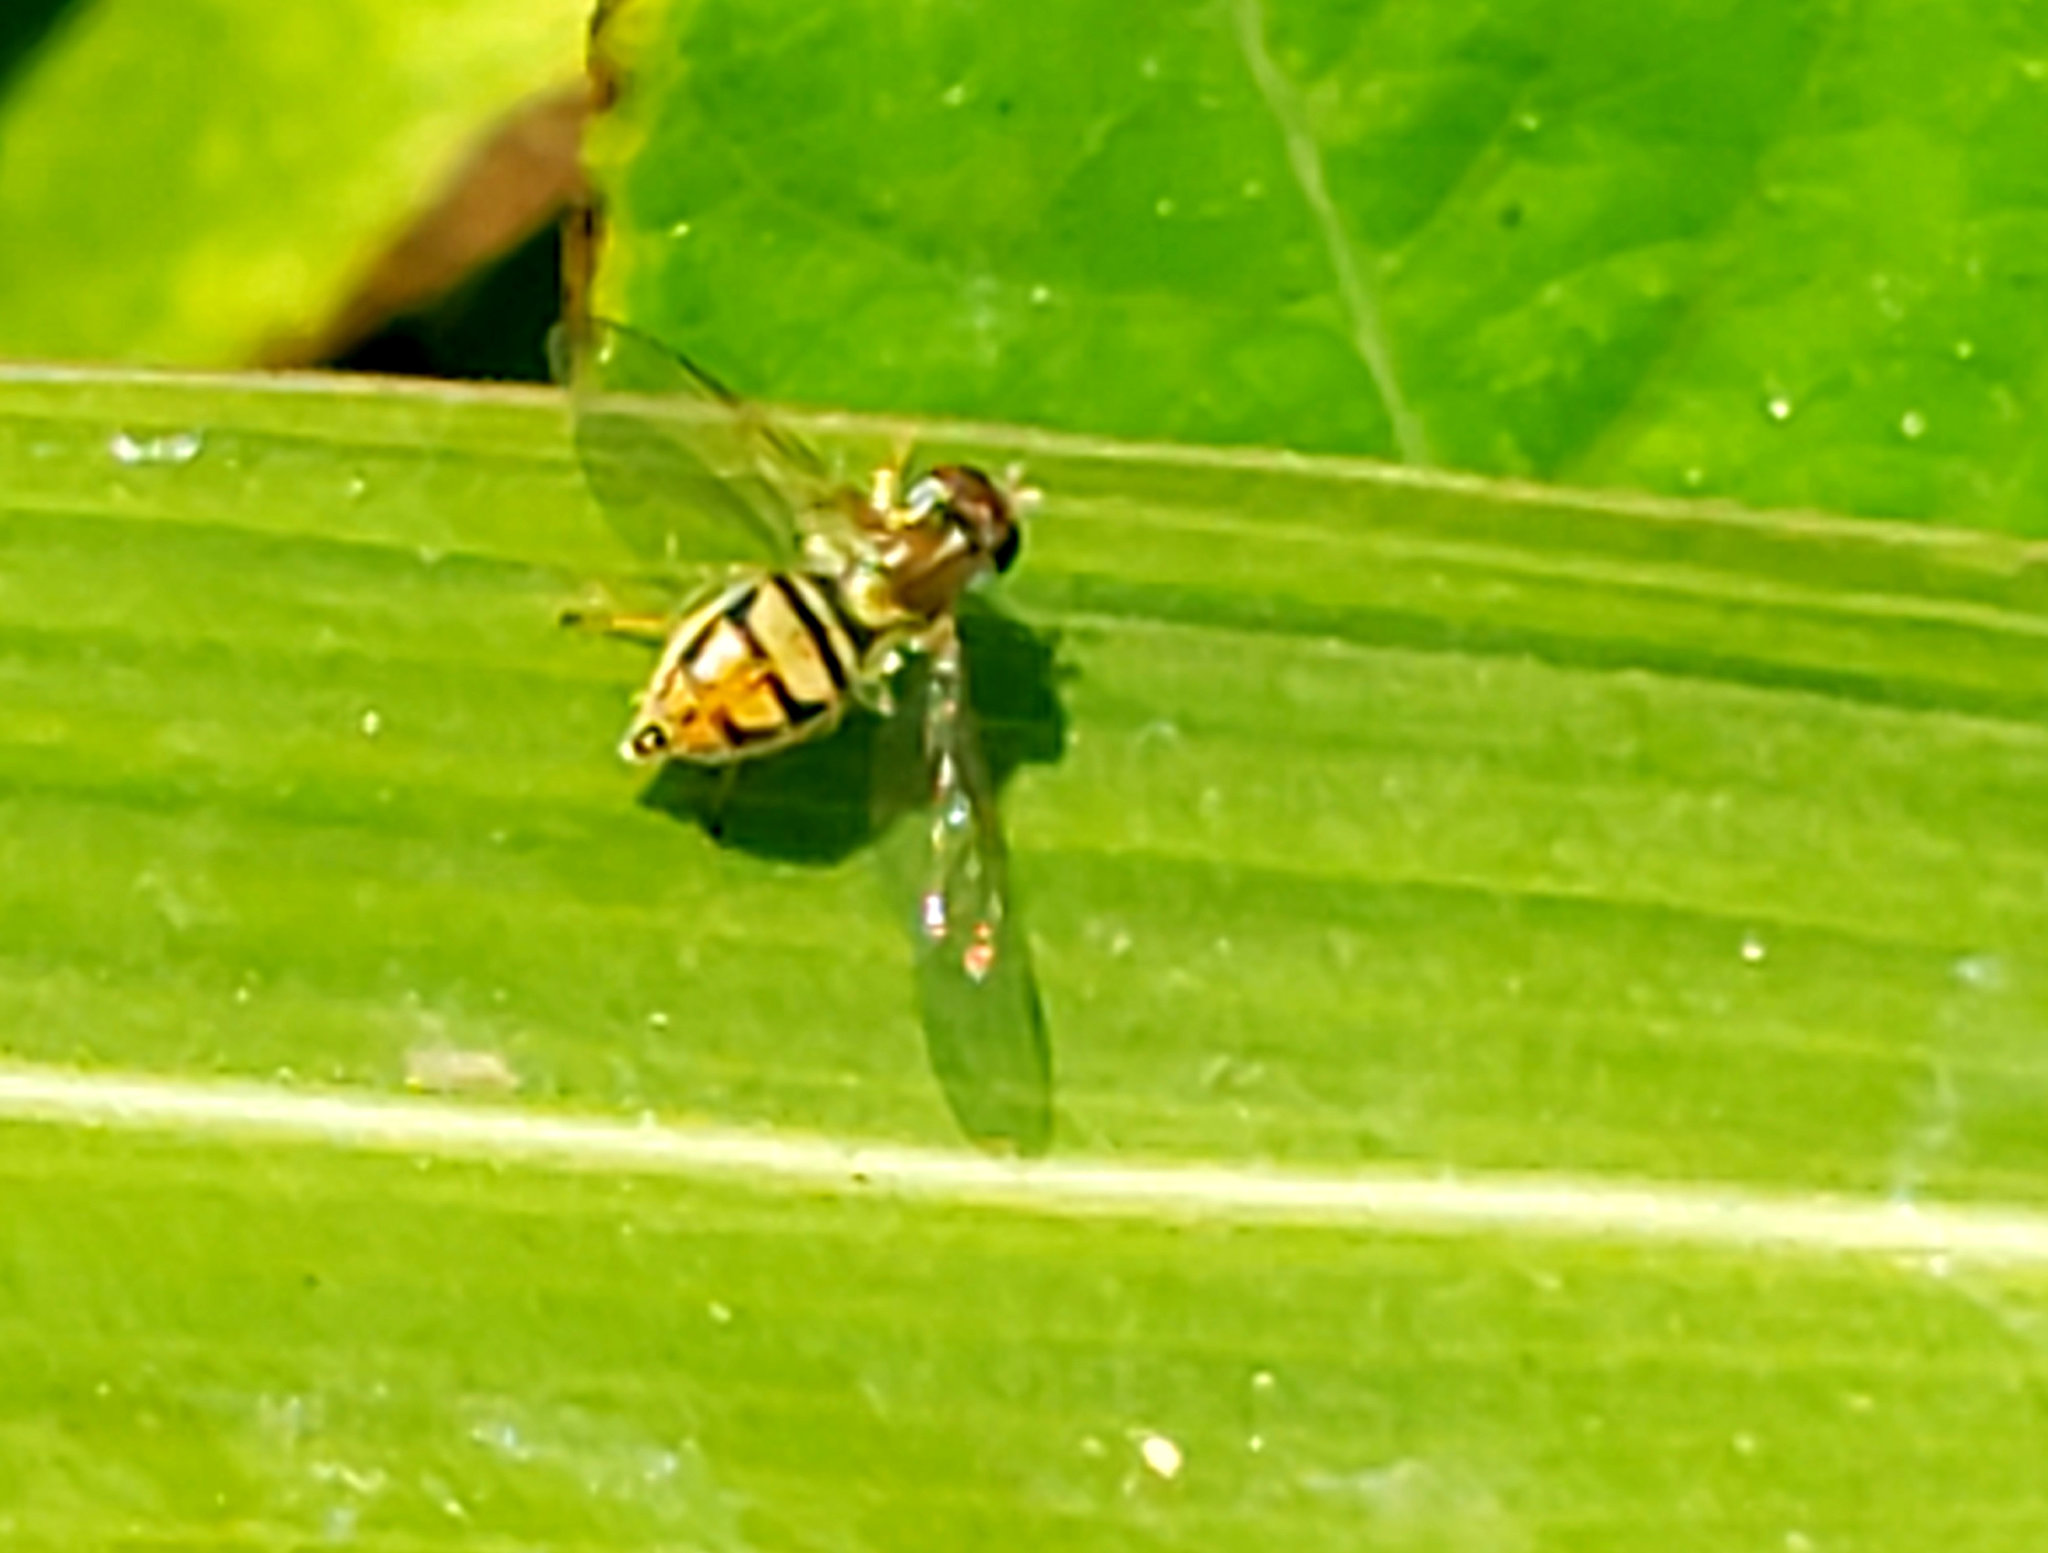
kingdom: Animalia
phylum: Arthropoda
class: Insecta
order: Diptera
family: Syrphidae
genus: Toxomerus
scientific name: Toxomerus marginatus
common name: Syrphid fly
